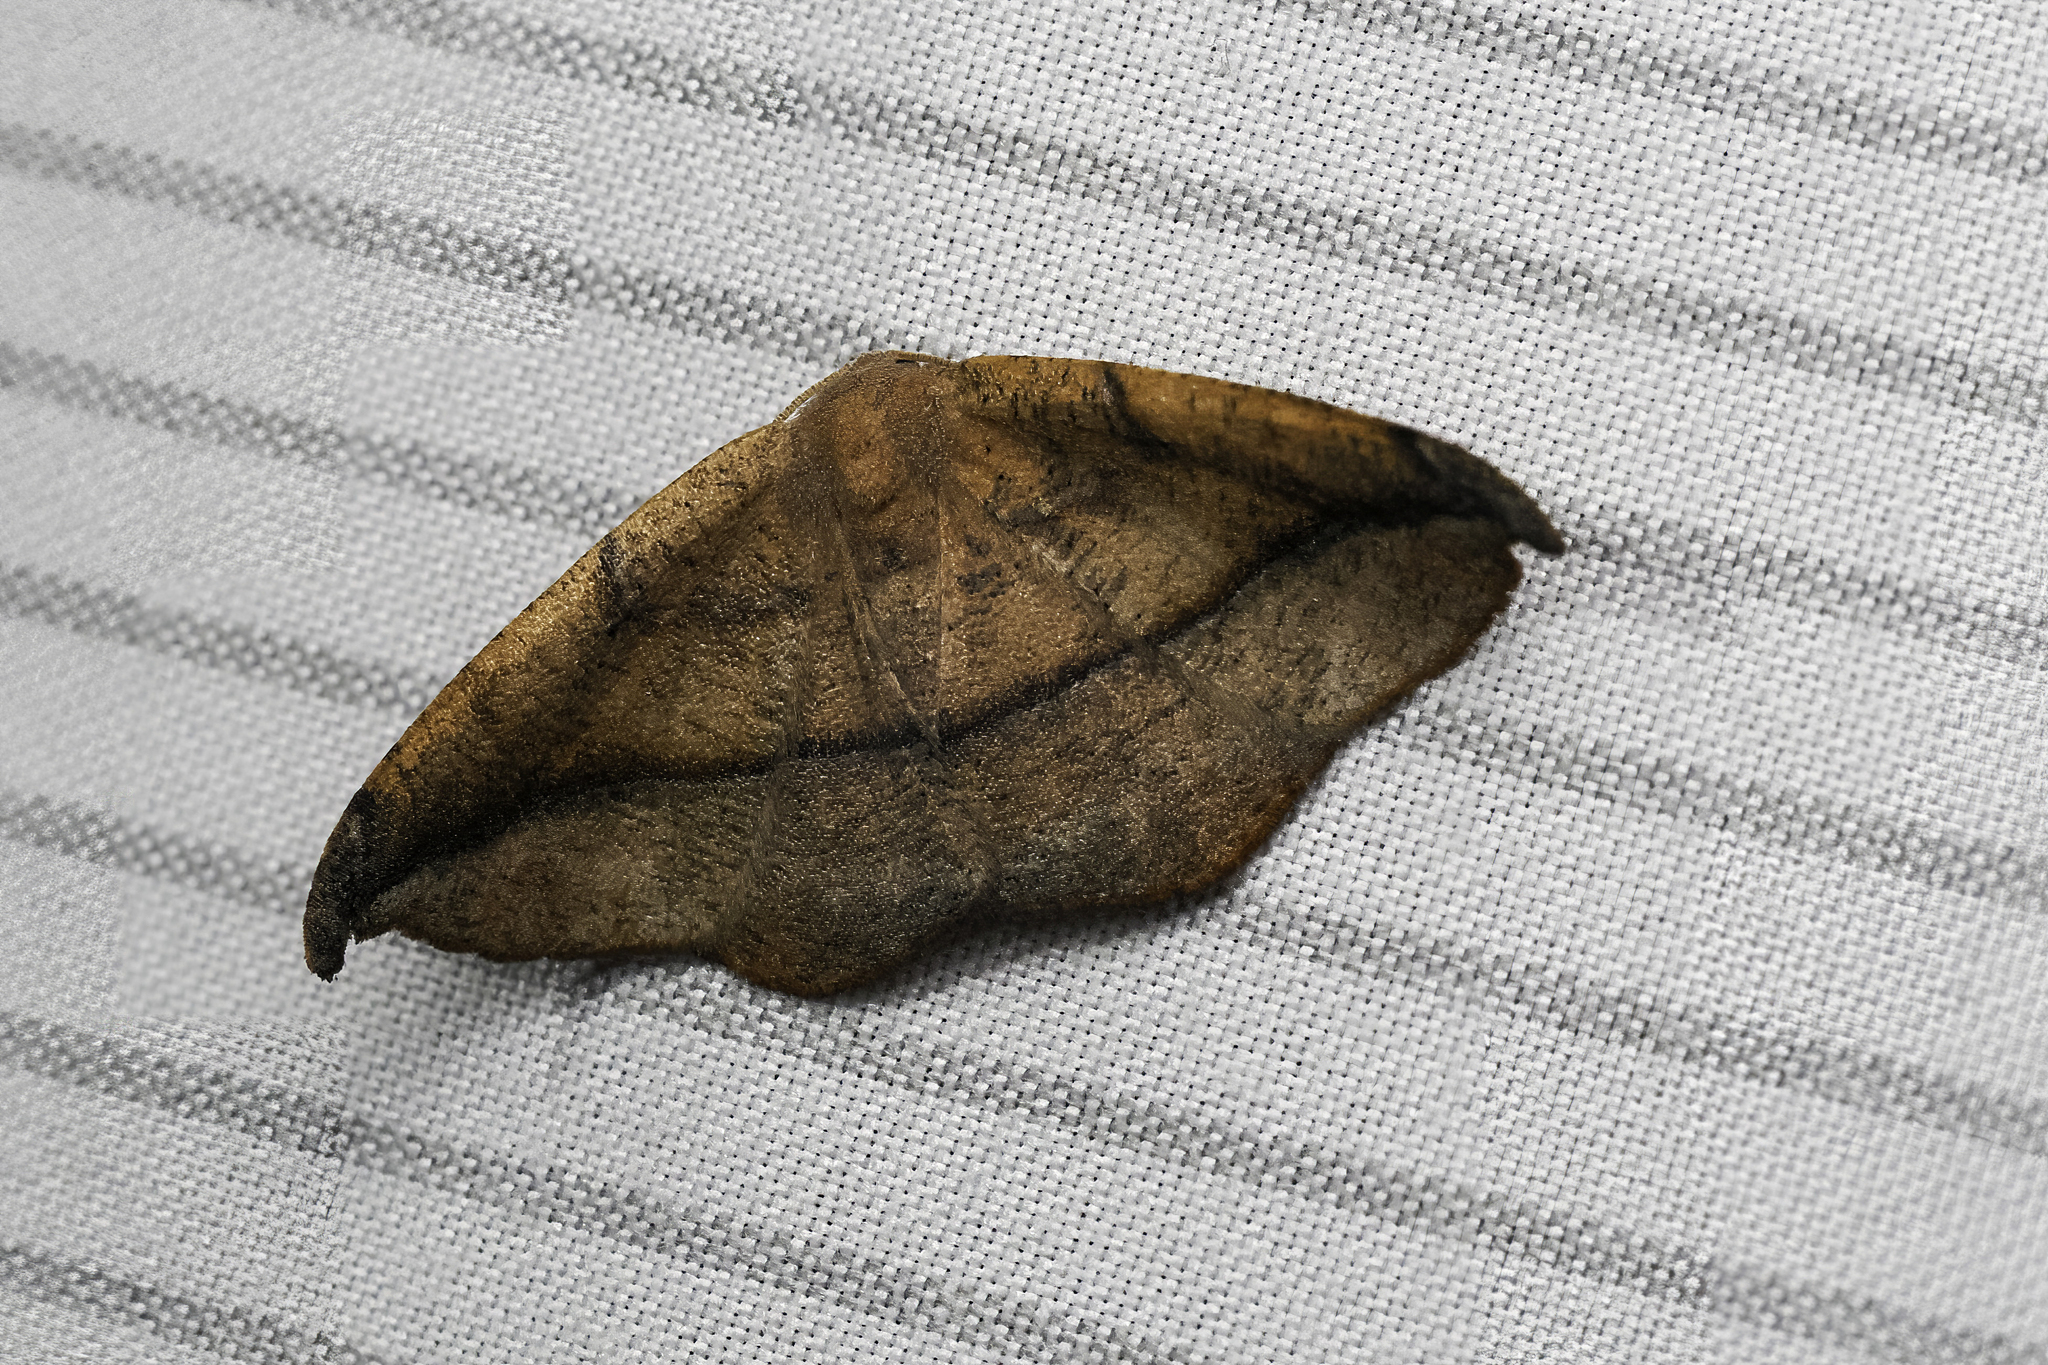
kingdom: Animalia
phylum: Arthropoda
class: Insecta
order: Lepidoptera
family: Geometridae
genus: Patalene
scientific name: Patalene olyzonaria
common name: Juniper geometer moth
